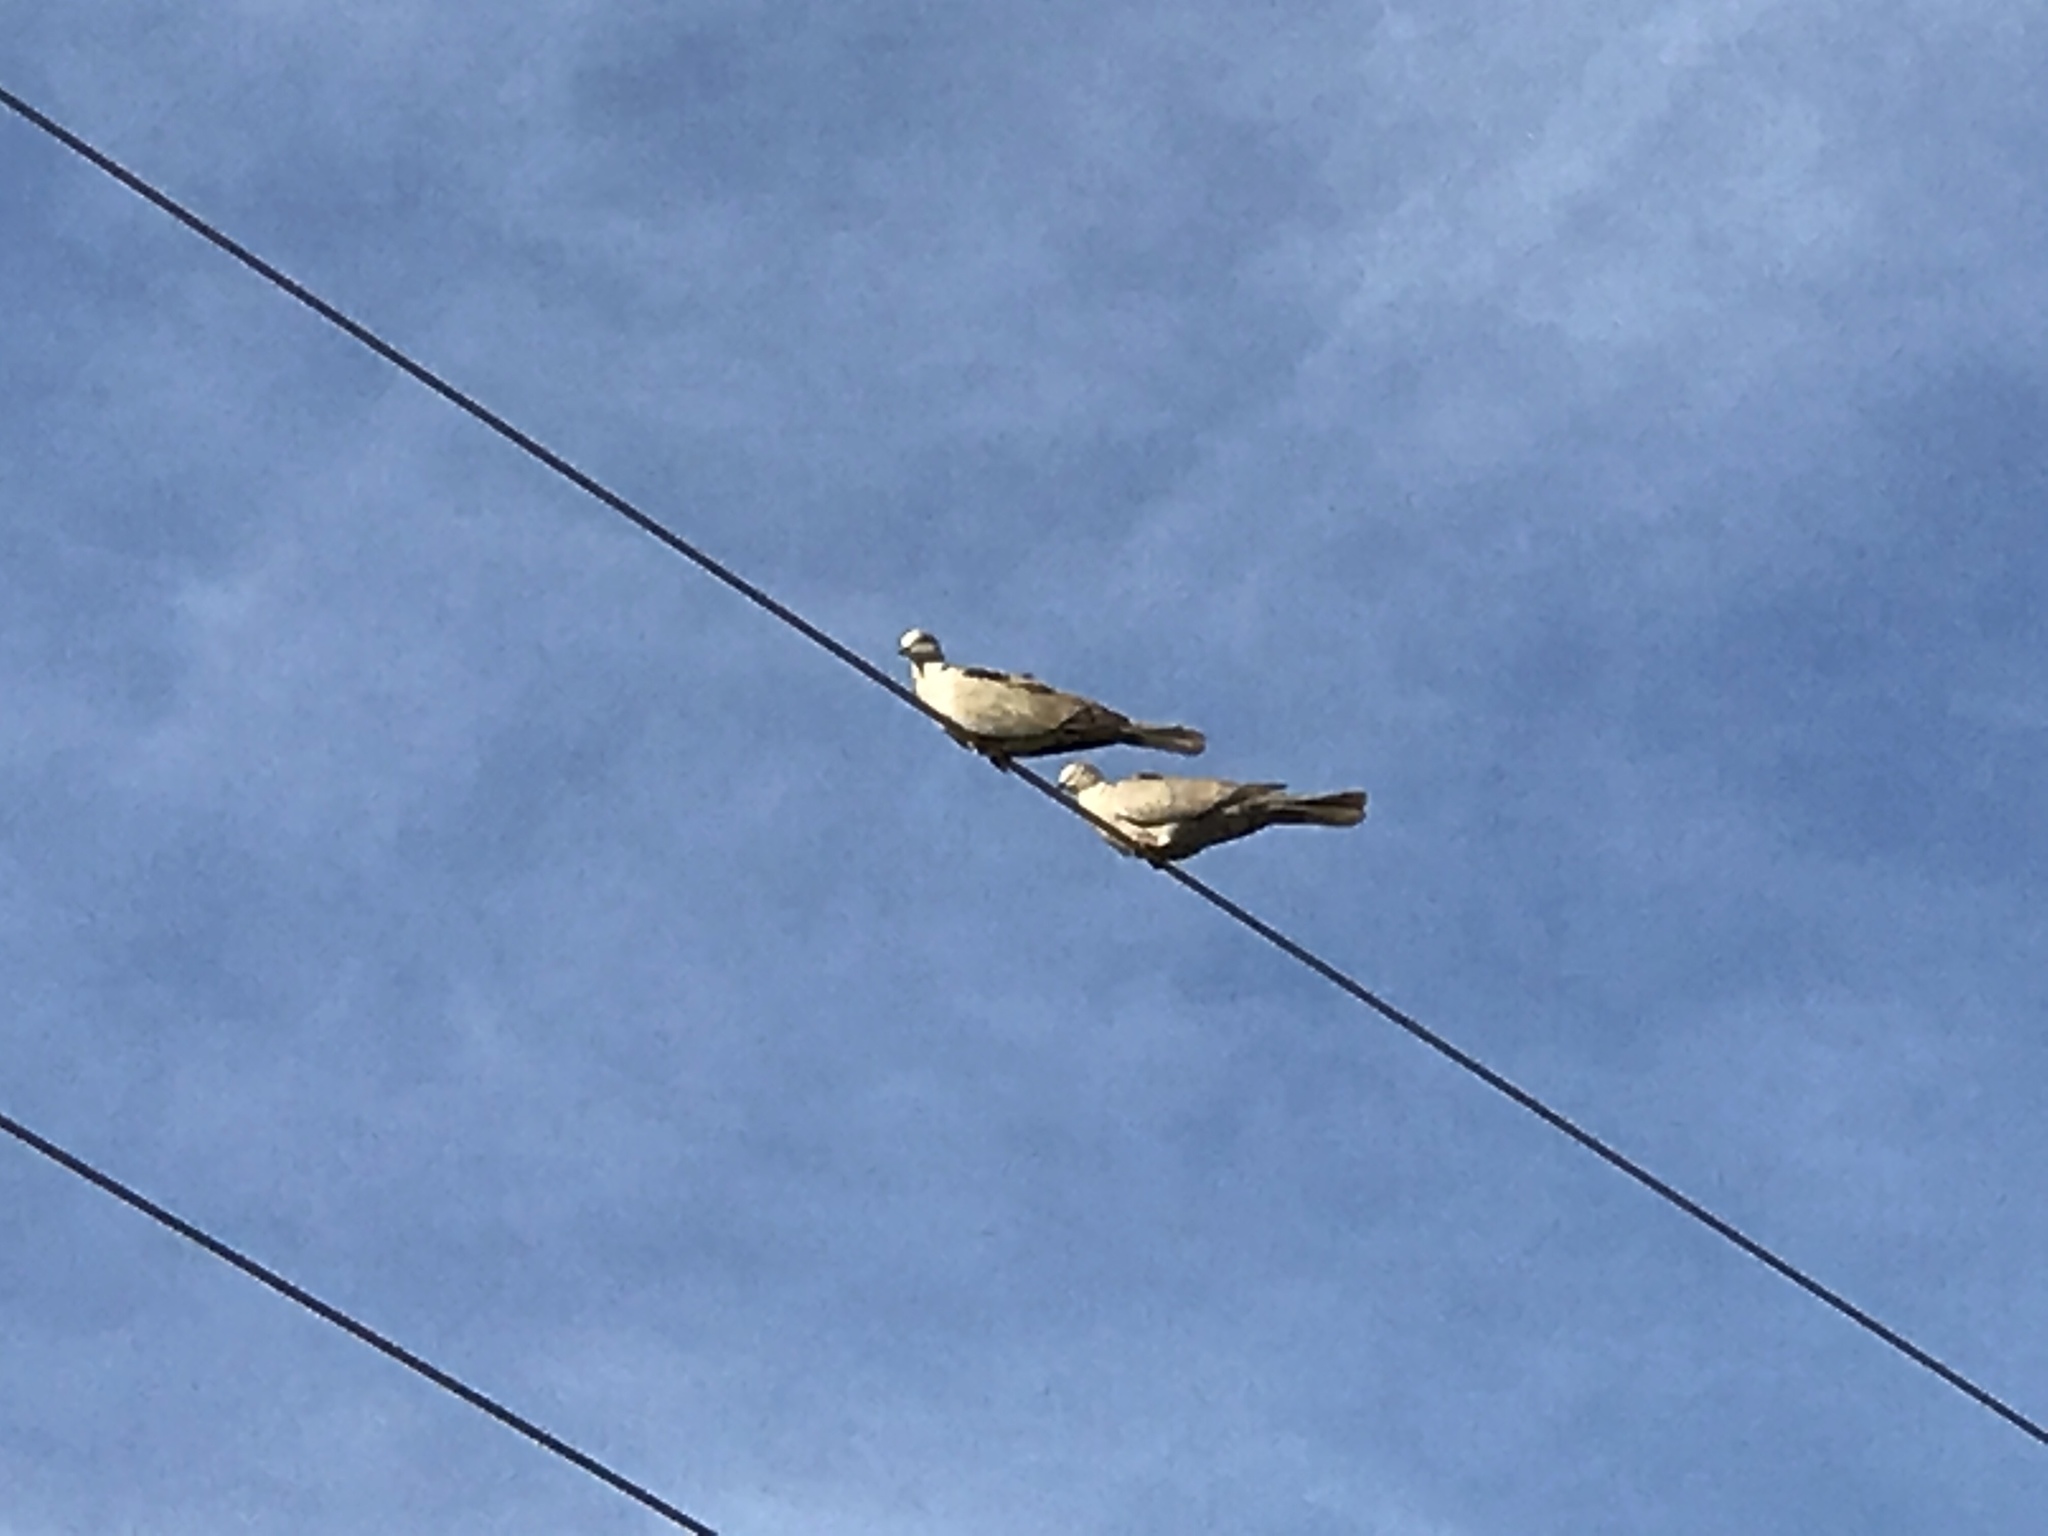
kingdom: Animalia
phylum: Chordata
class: Aves
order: Columbiformes
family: Columbidae
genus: Streptopelia
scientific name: Streptopelia decaocto
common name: Eurasian collared dove
